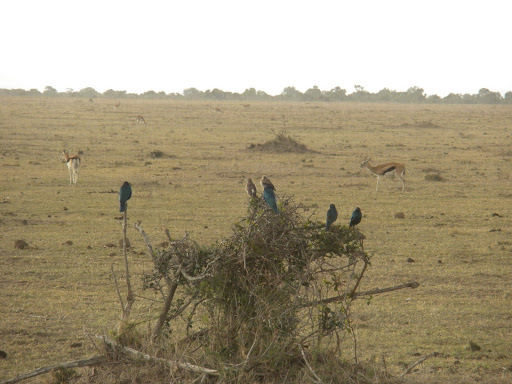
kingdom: Animalia
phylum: Chordata
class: Aves
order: Passeriformes
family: Sturnidae
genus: Lamprotornis
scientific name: Lamprotornis chalybaeus
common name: Greater blue-eared starling
